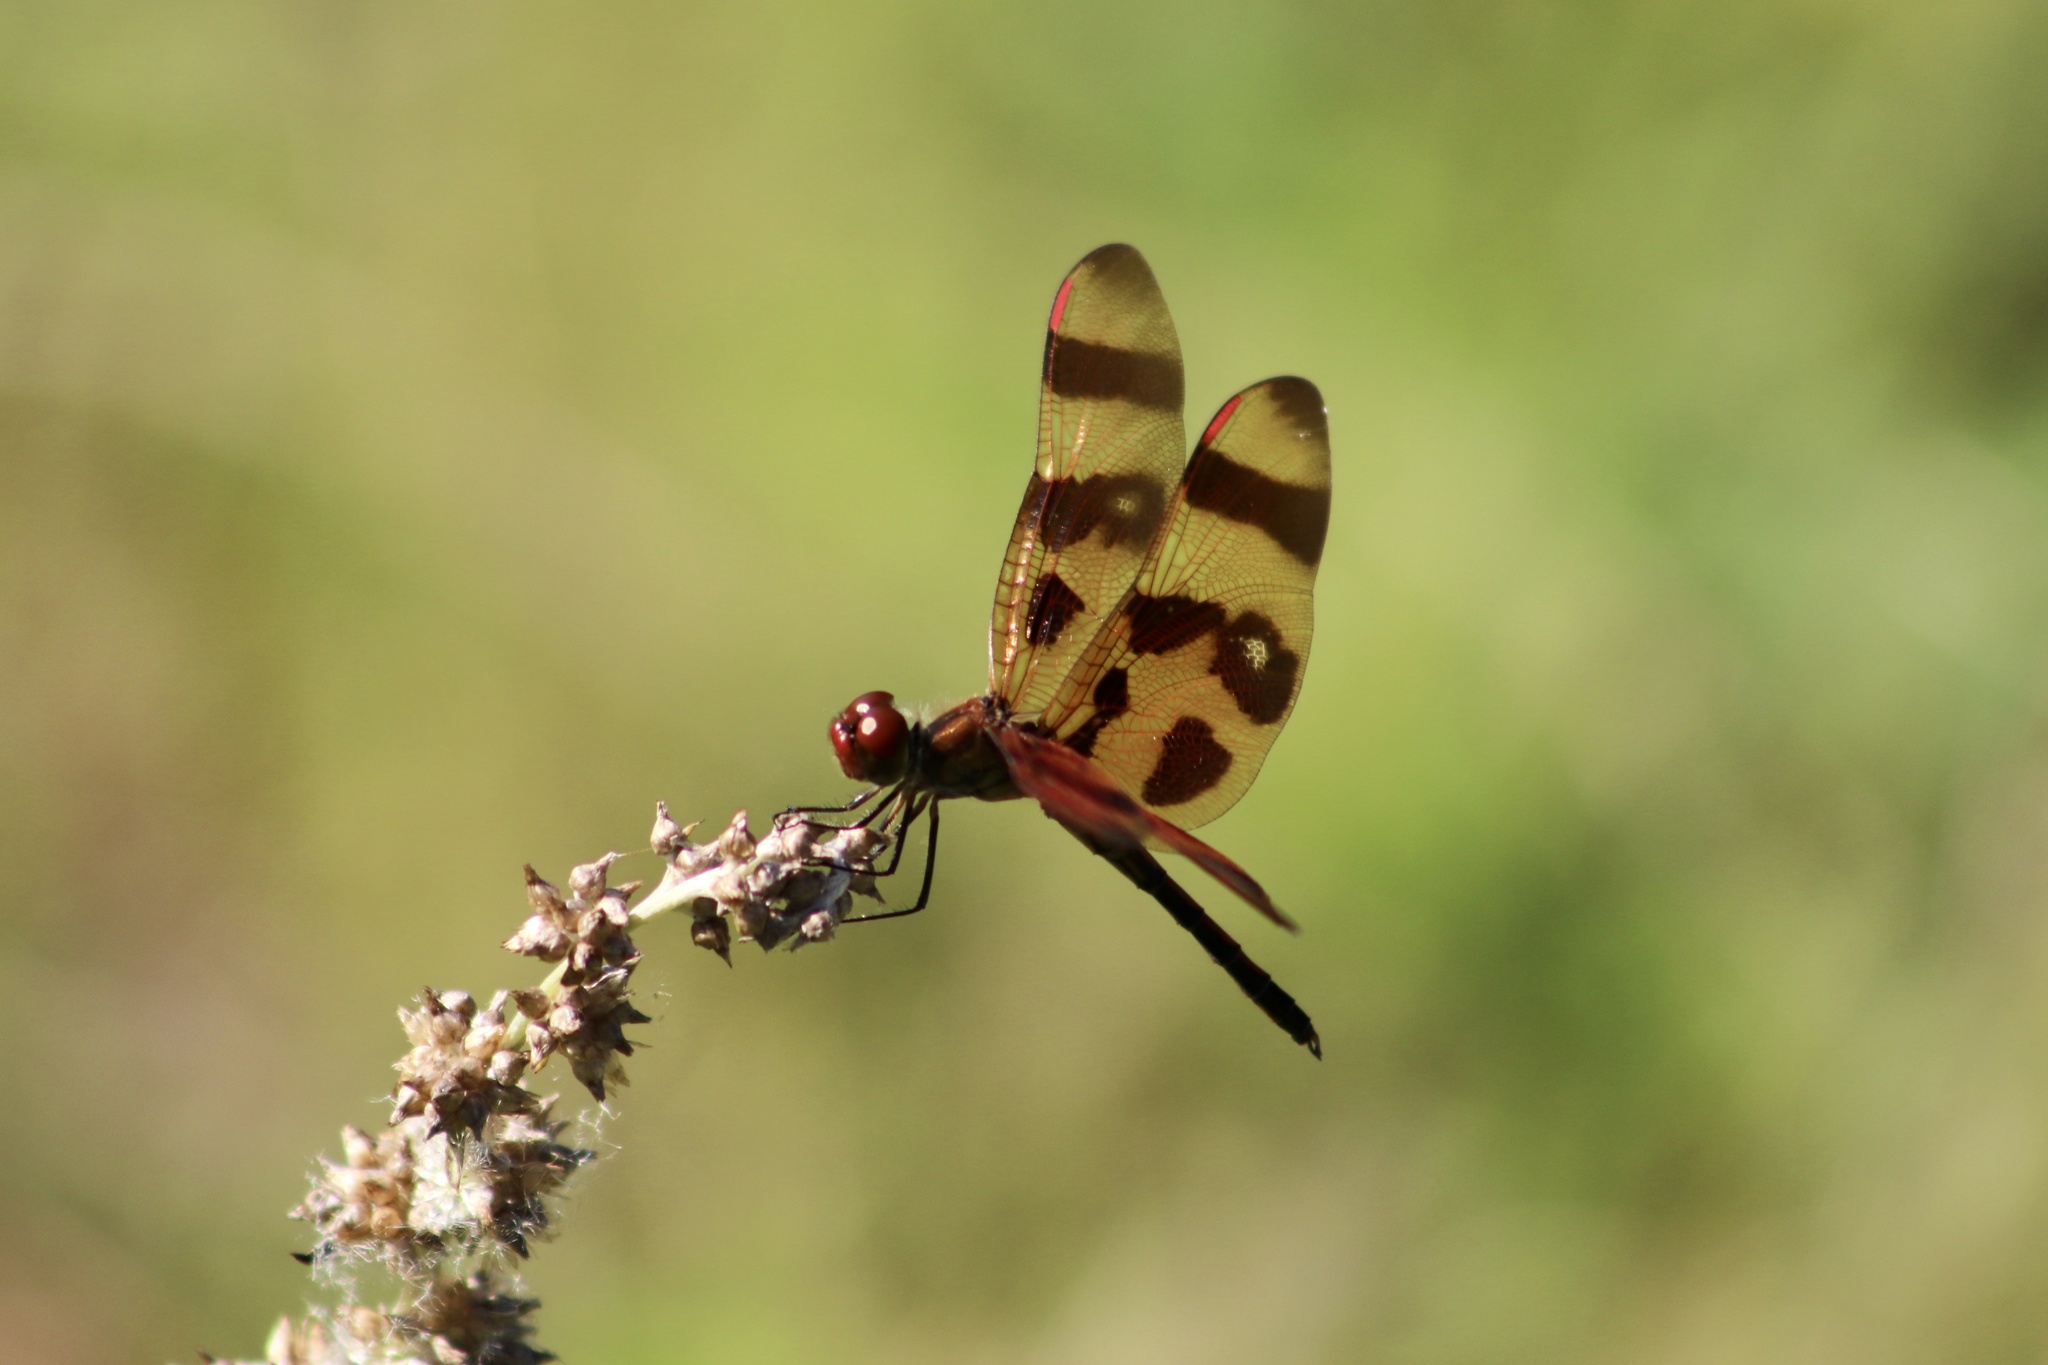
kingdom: Animalia
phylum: Arthropoda
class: Insecta
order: Odonata
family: Libellulidae
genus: Celithemis
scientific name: Celithemis eponina
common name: Halloween pennant
